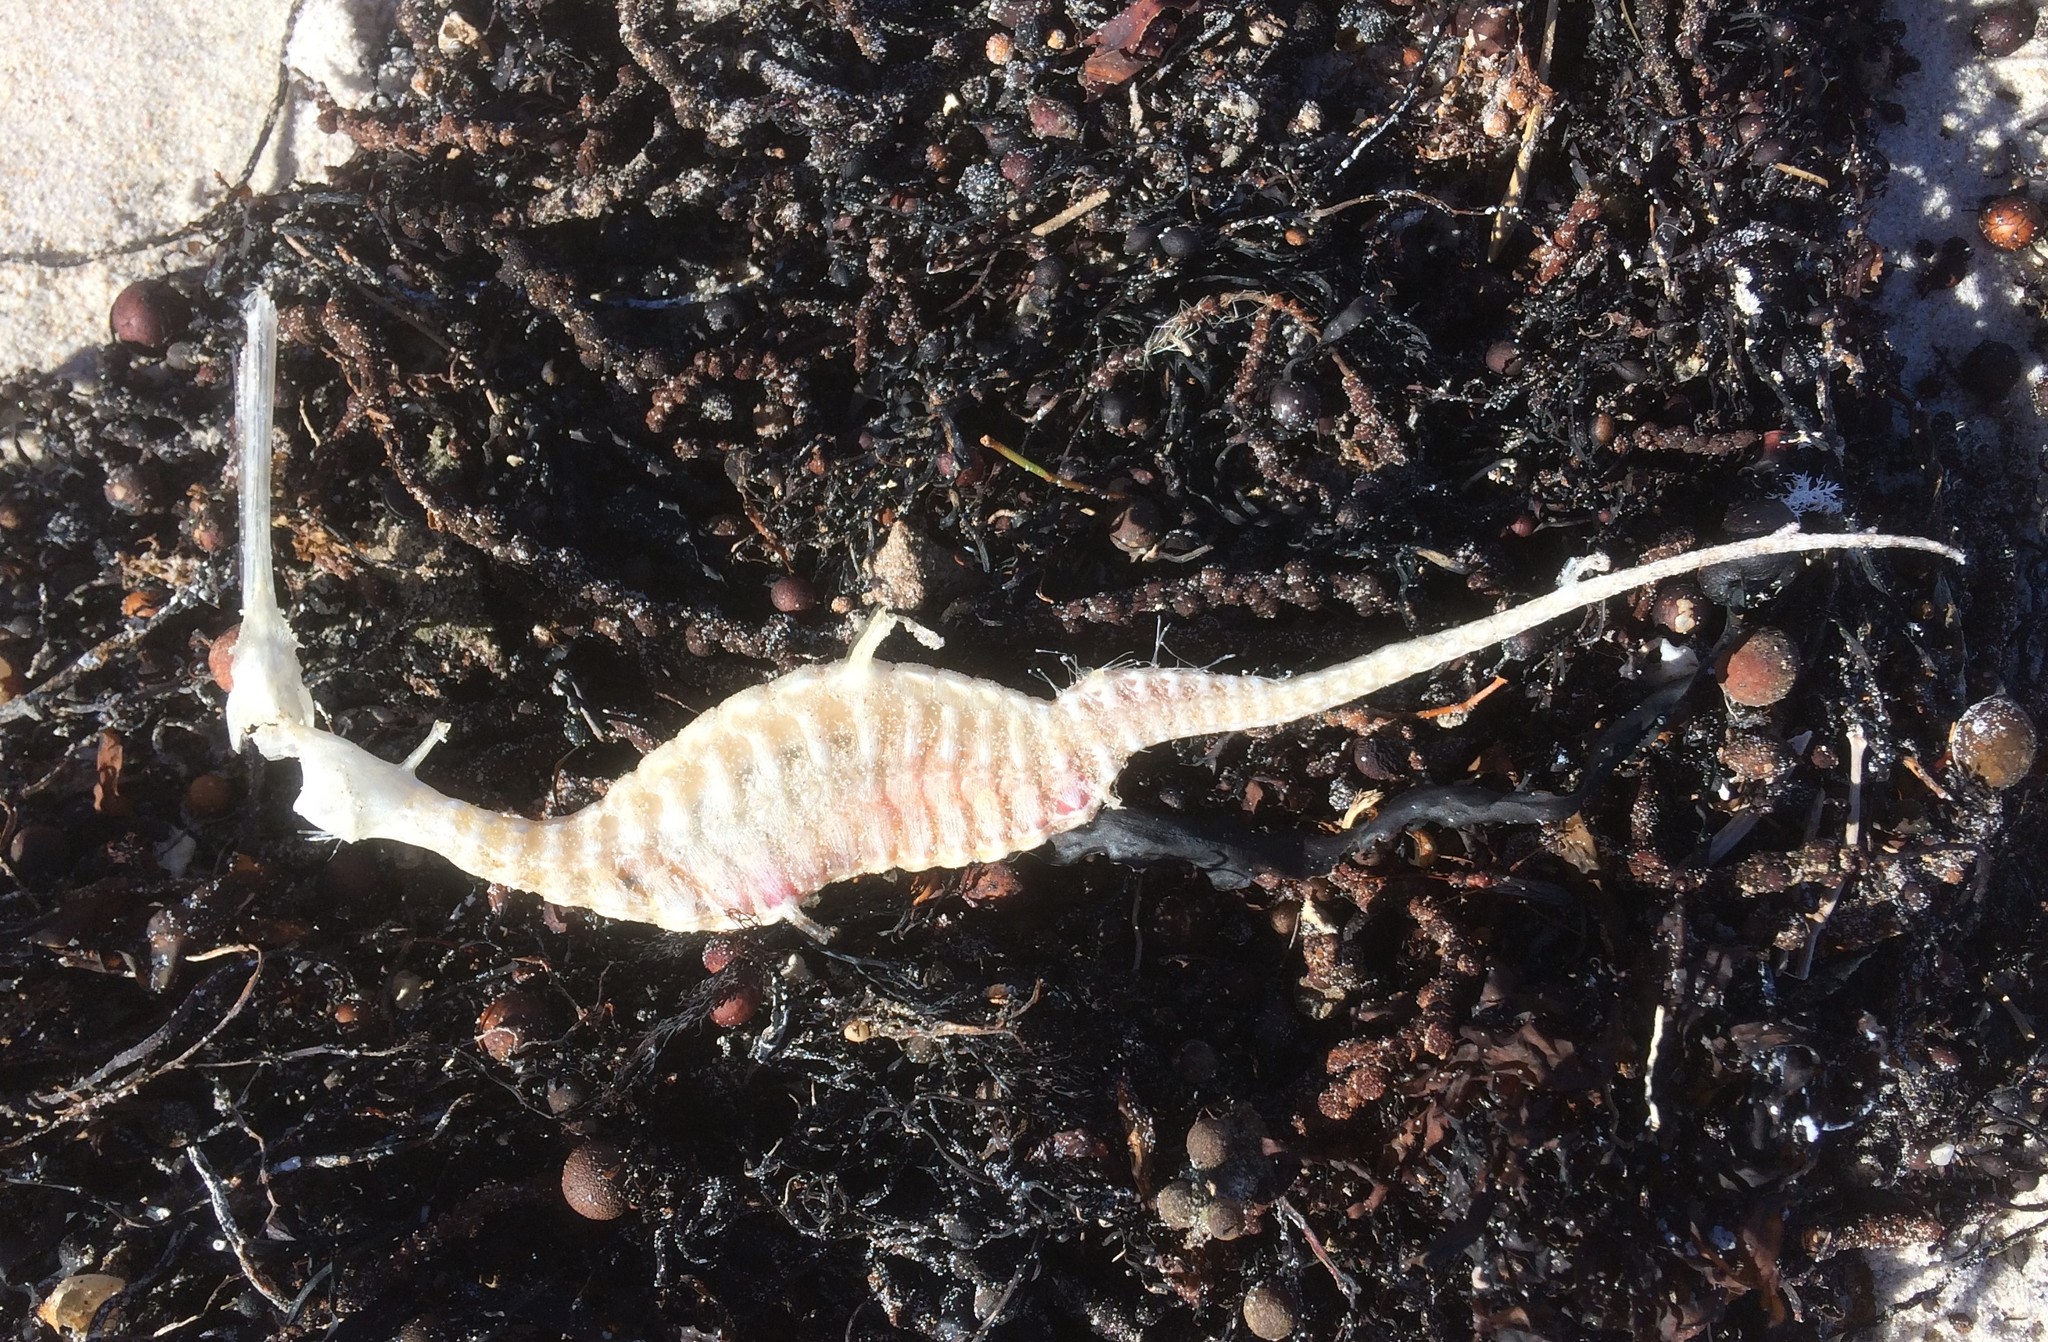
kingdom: Animalia
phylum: Chordata
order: Syngnathiformes
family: Syngnathidae
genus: Phyllopteryx
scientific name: Phyllopteryx taeniolatus
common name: Common seadragon
